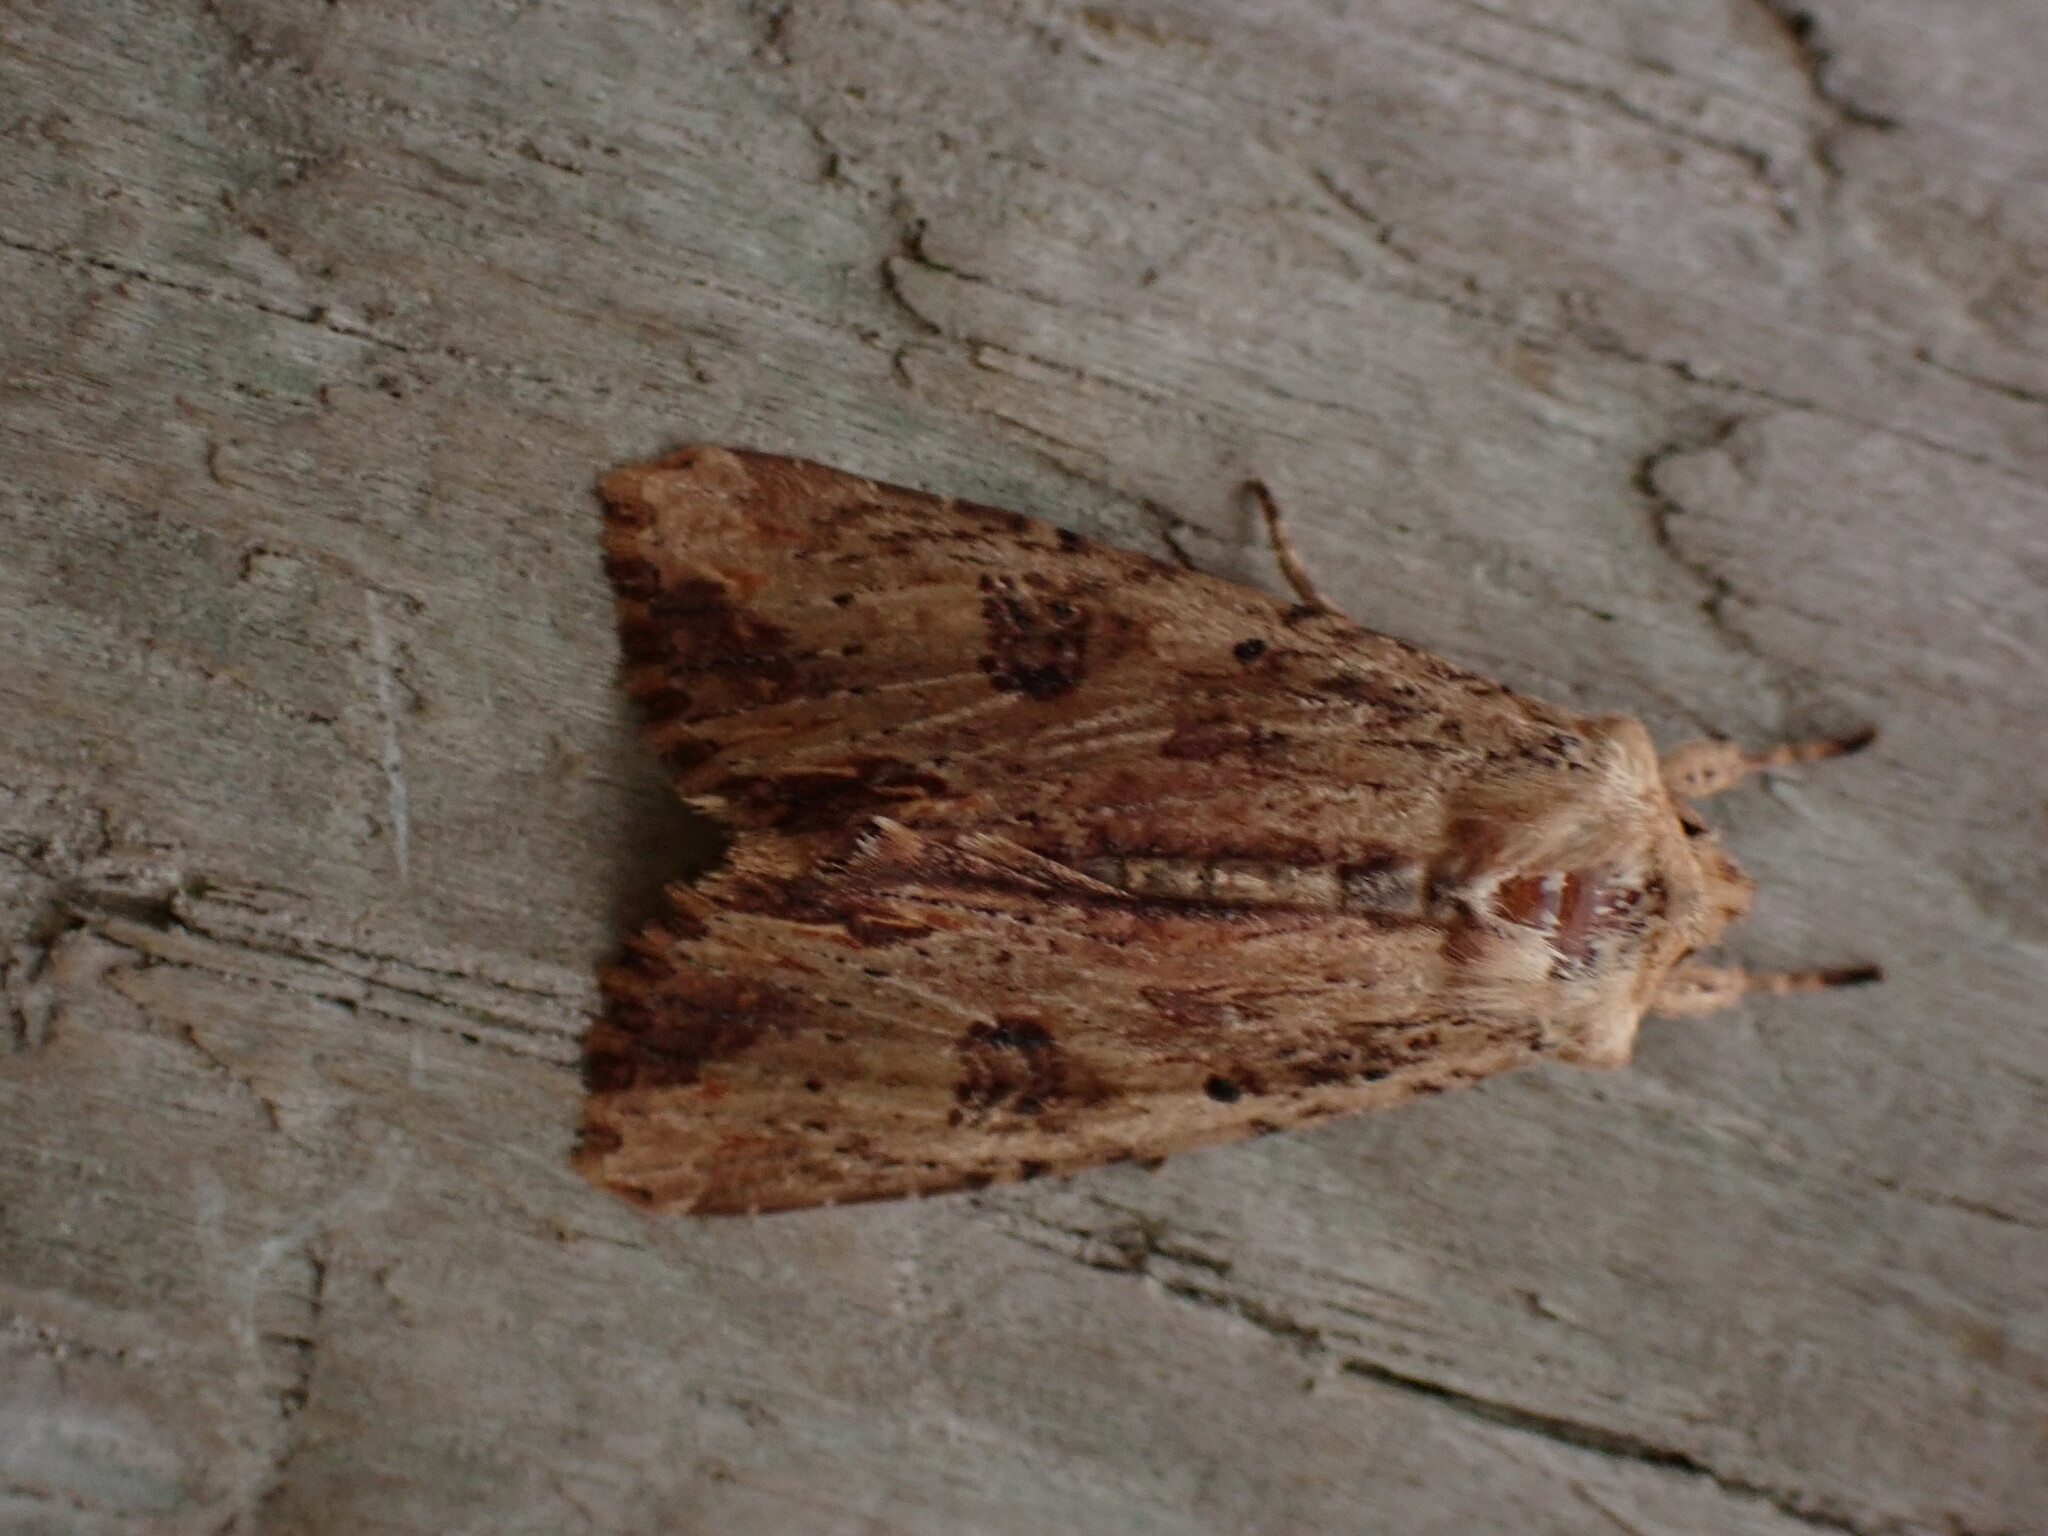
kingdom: Animalia
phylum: Arthropoda
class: Insecta
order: Lepidoptera
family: Noctuidae
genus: Ichneutica
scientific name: Ichneutica
